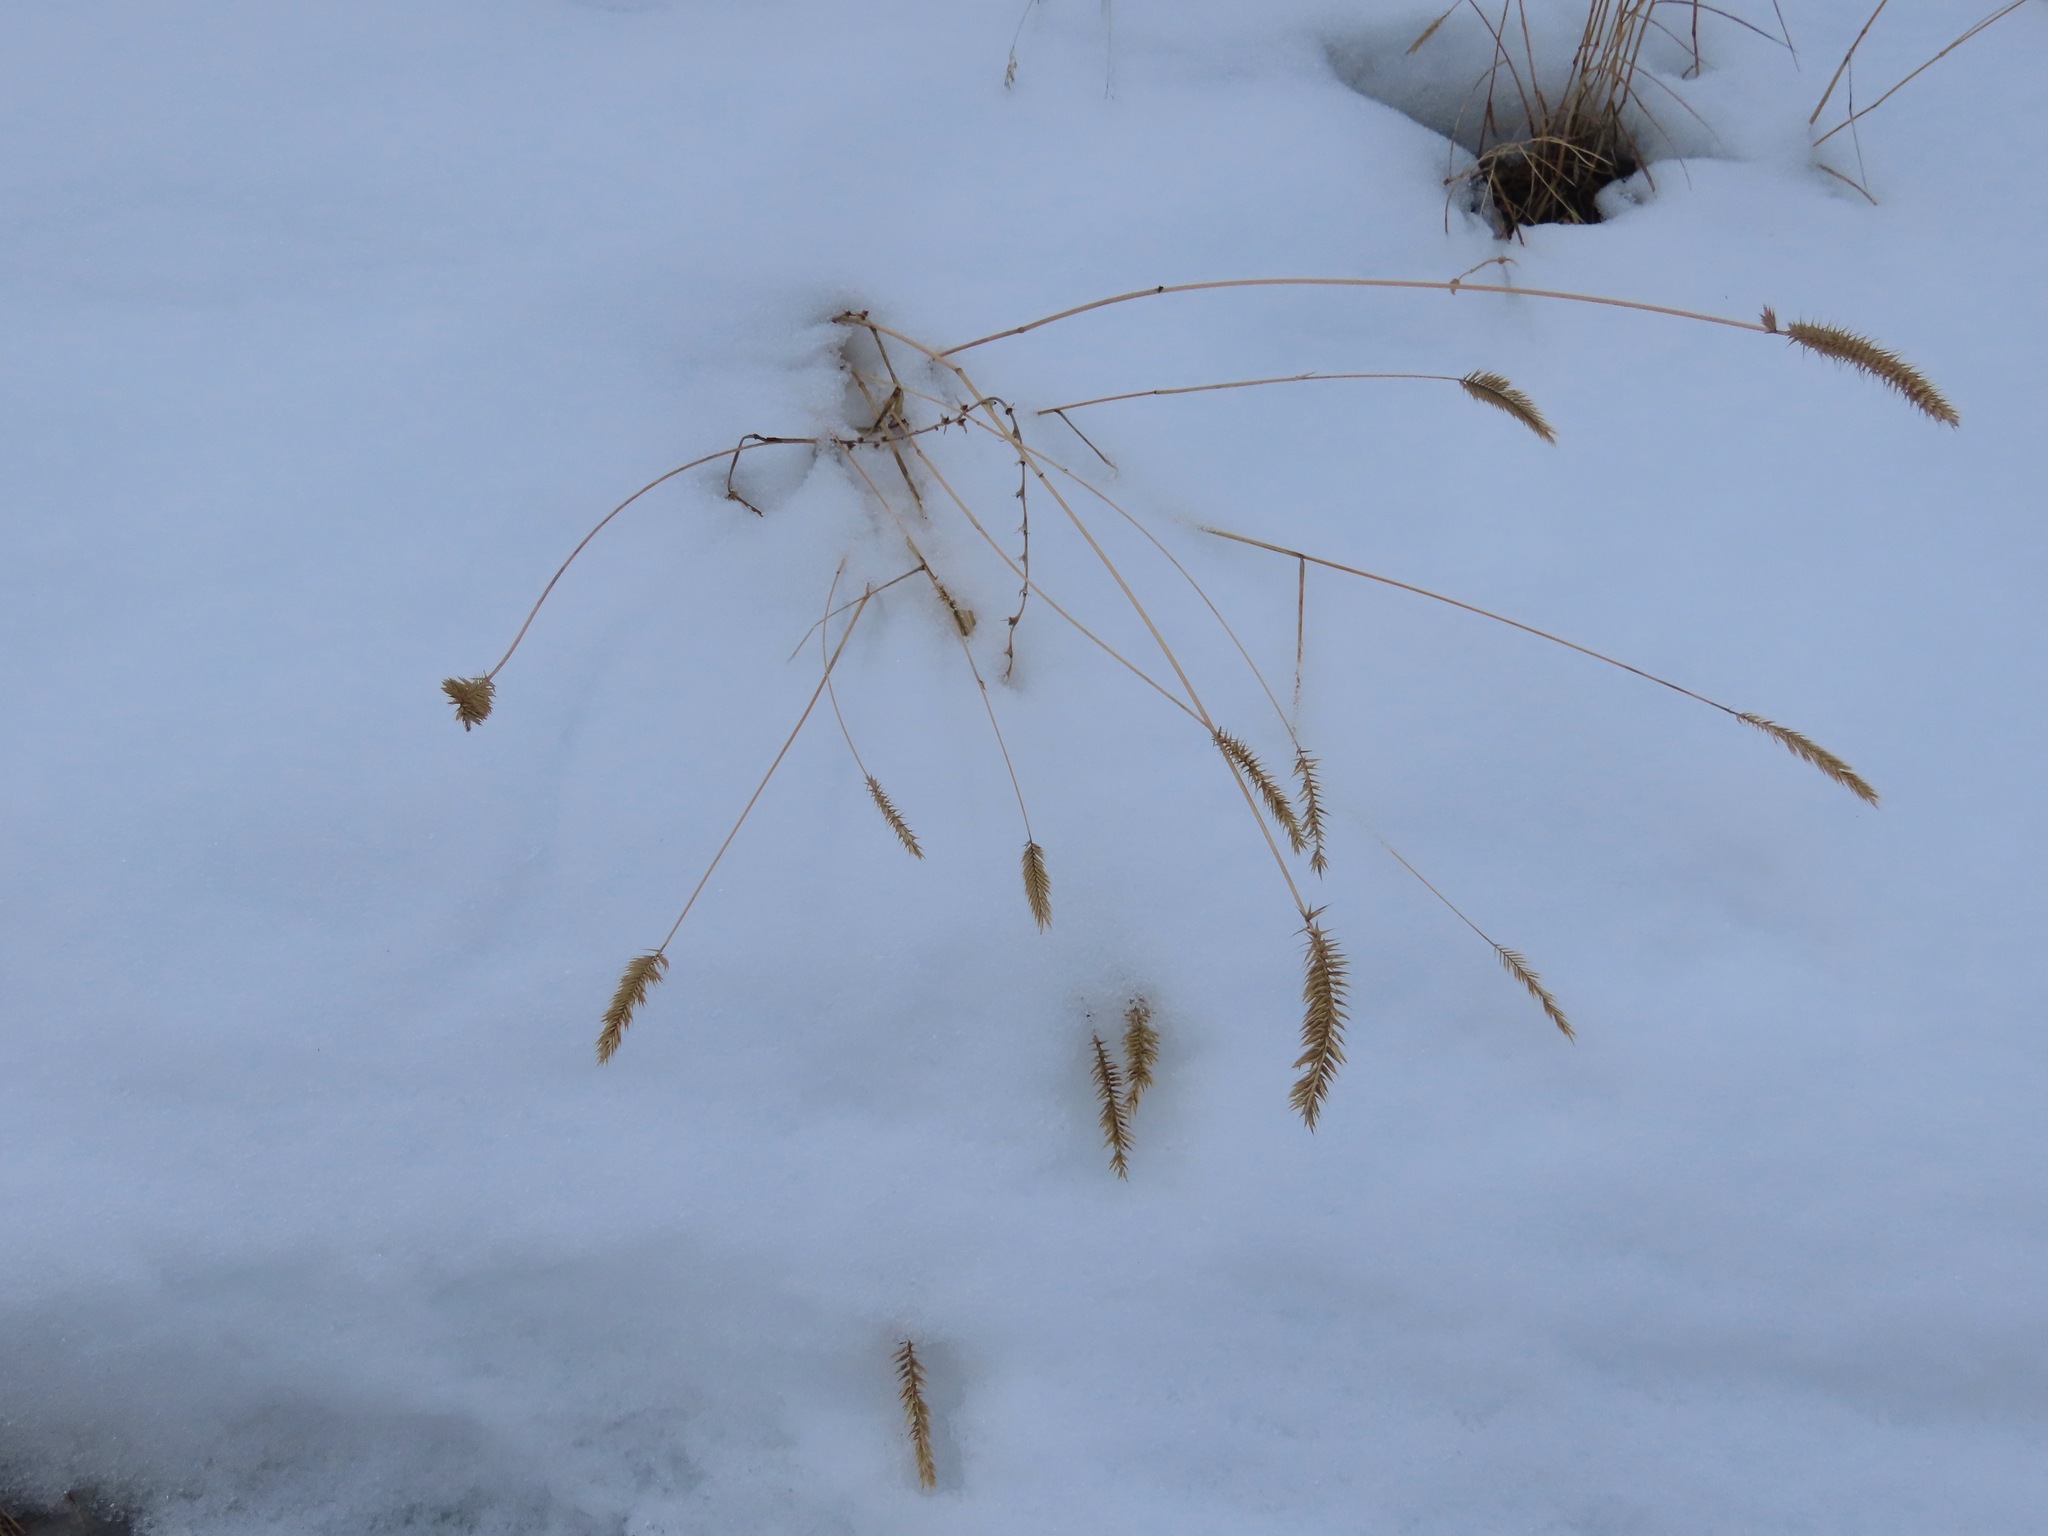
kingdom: Plantae
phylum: Tracheophyta
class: Liliopsida
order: Poales
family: Poaceae
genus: Agropyron
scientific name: Agropyron cristatum
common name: Crested wheatgrass
